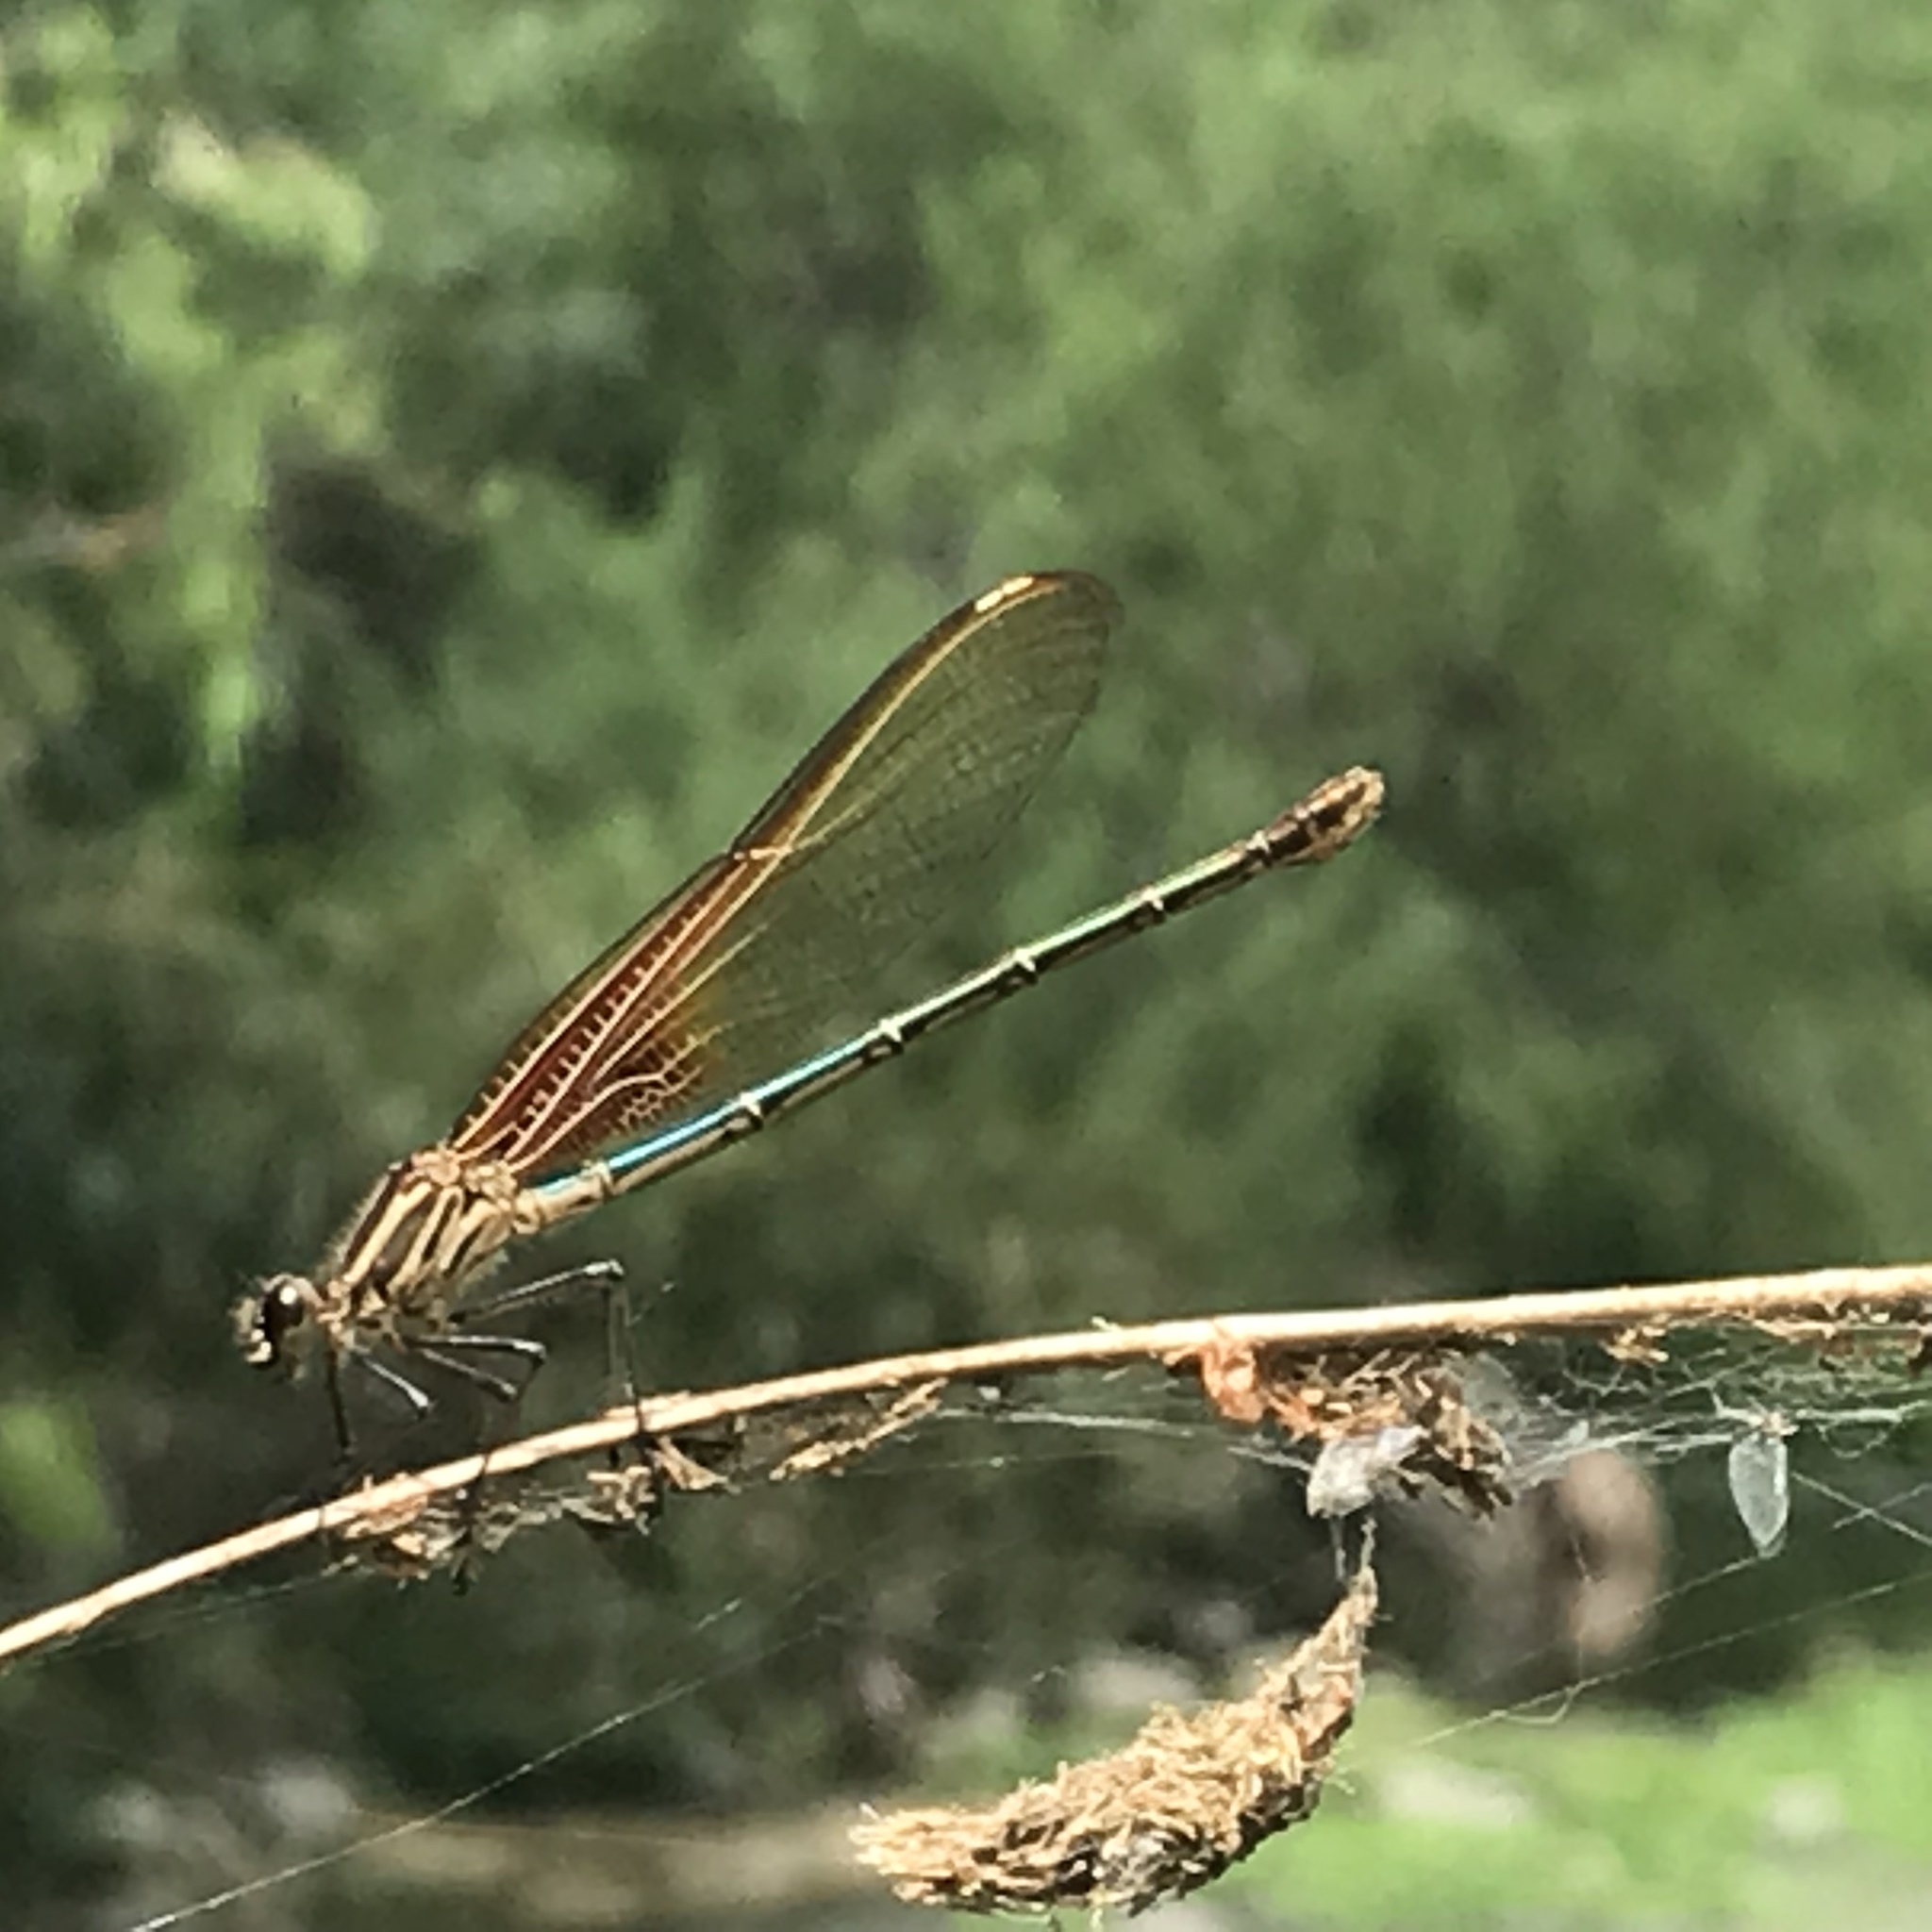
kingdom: Animalia
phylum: Arthropoda
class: Insecta
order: Odonata
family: Calopterygidae
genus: Hetaerina
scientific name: Hetaerina americana
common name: American rubyspot
